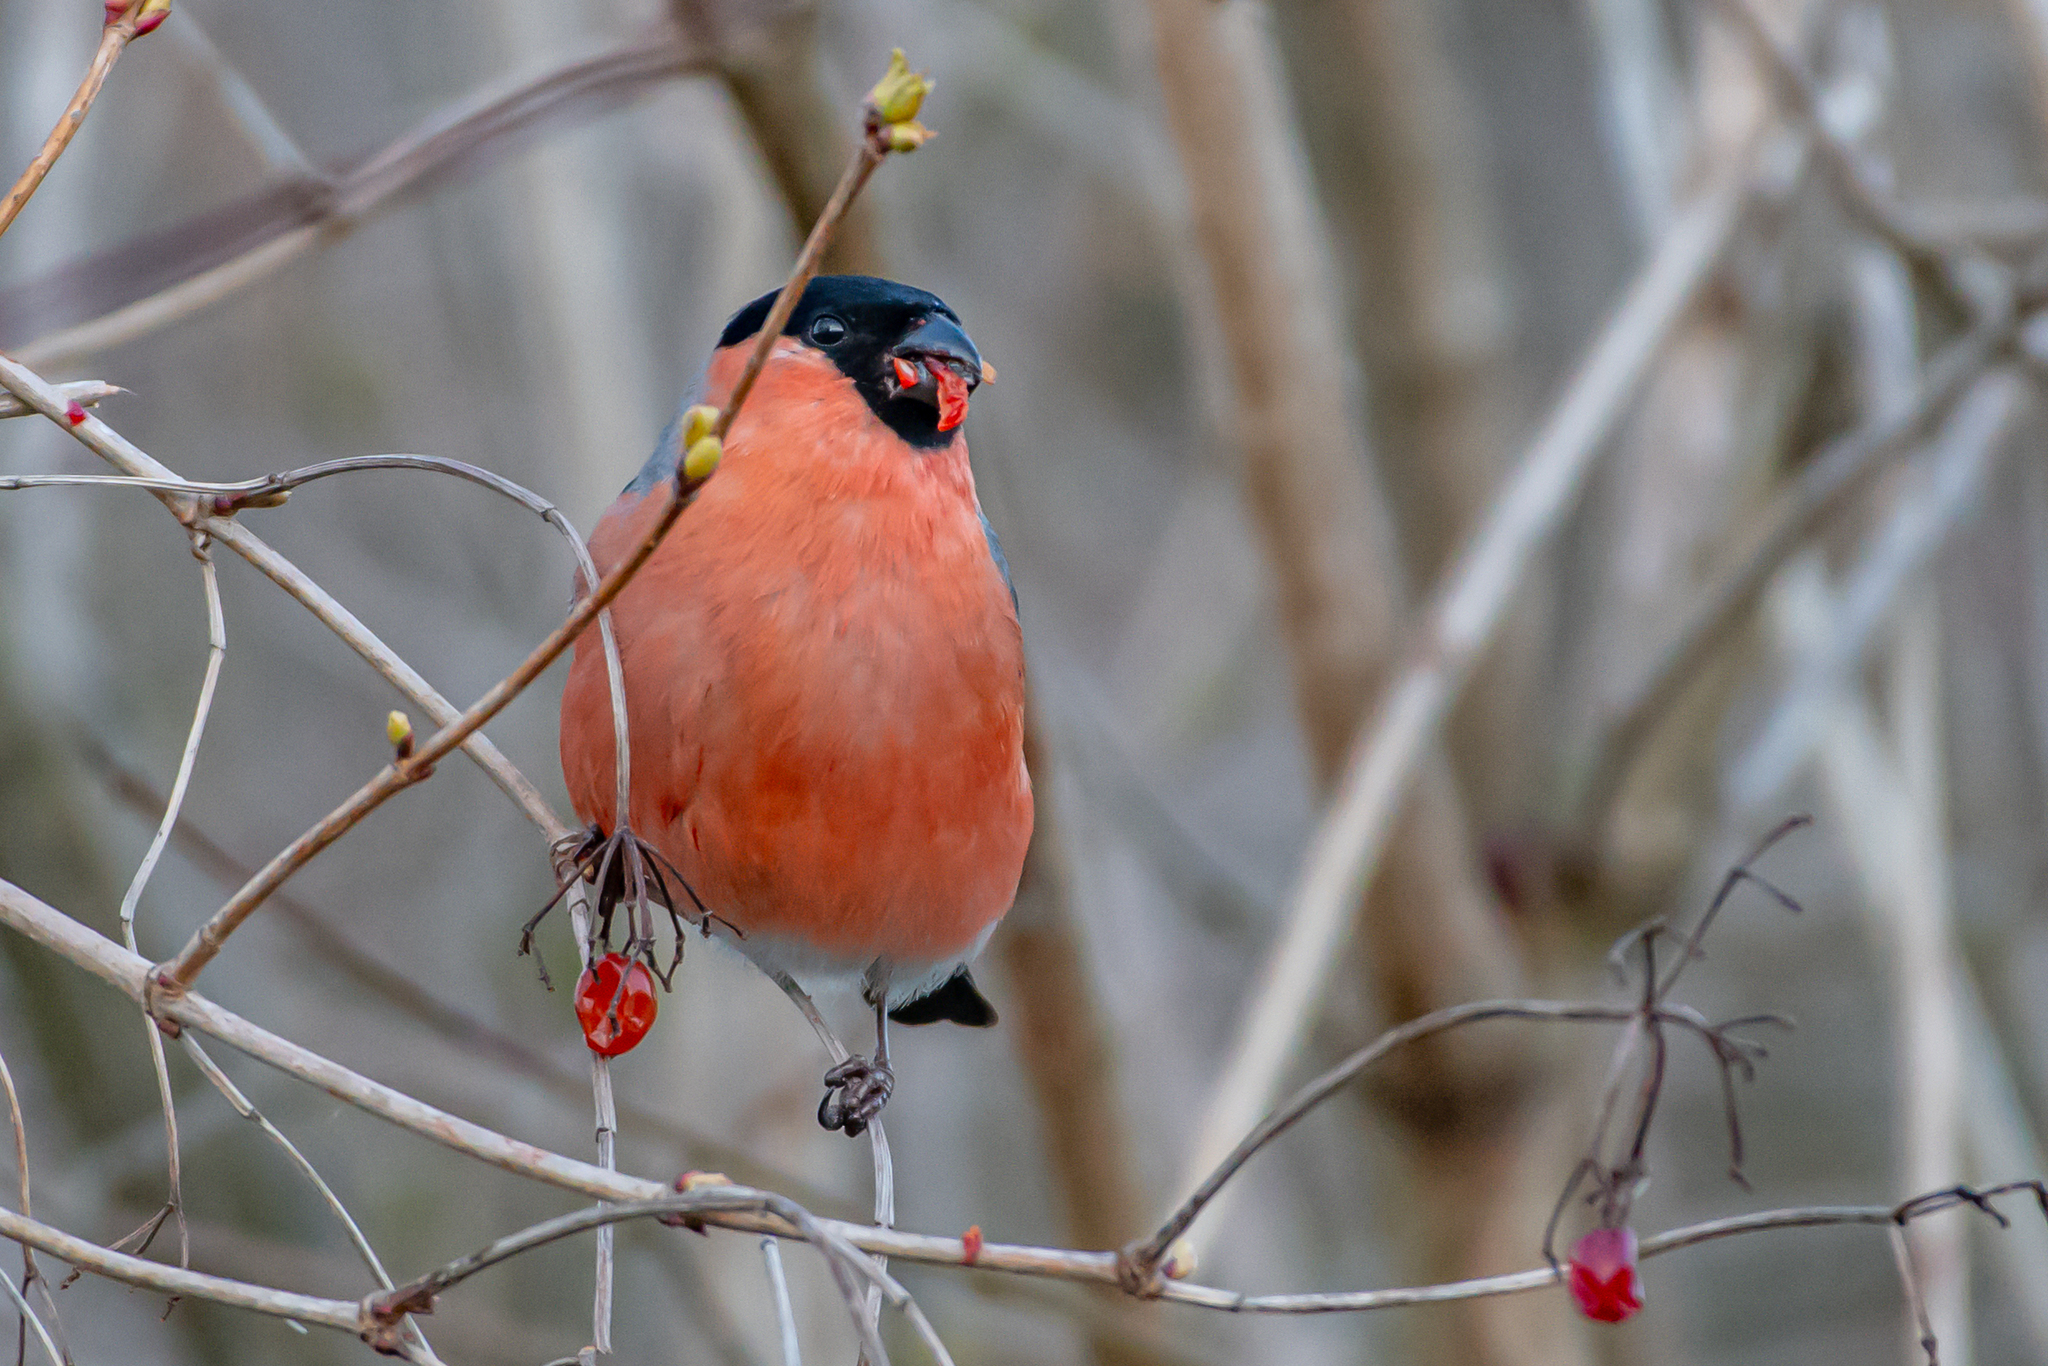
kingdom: Animalia
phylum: Chordata
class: Aves
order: Passeriformes
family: Fringillidae
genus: Pyrrhula
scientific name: Pyrrhula pyrrhula
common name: Eurasian bullfinch
